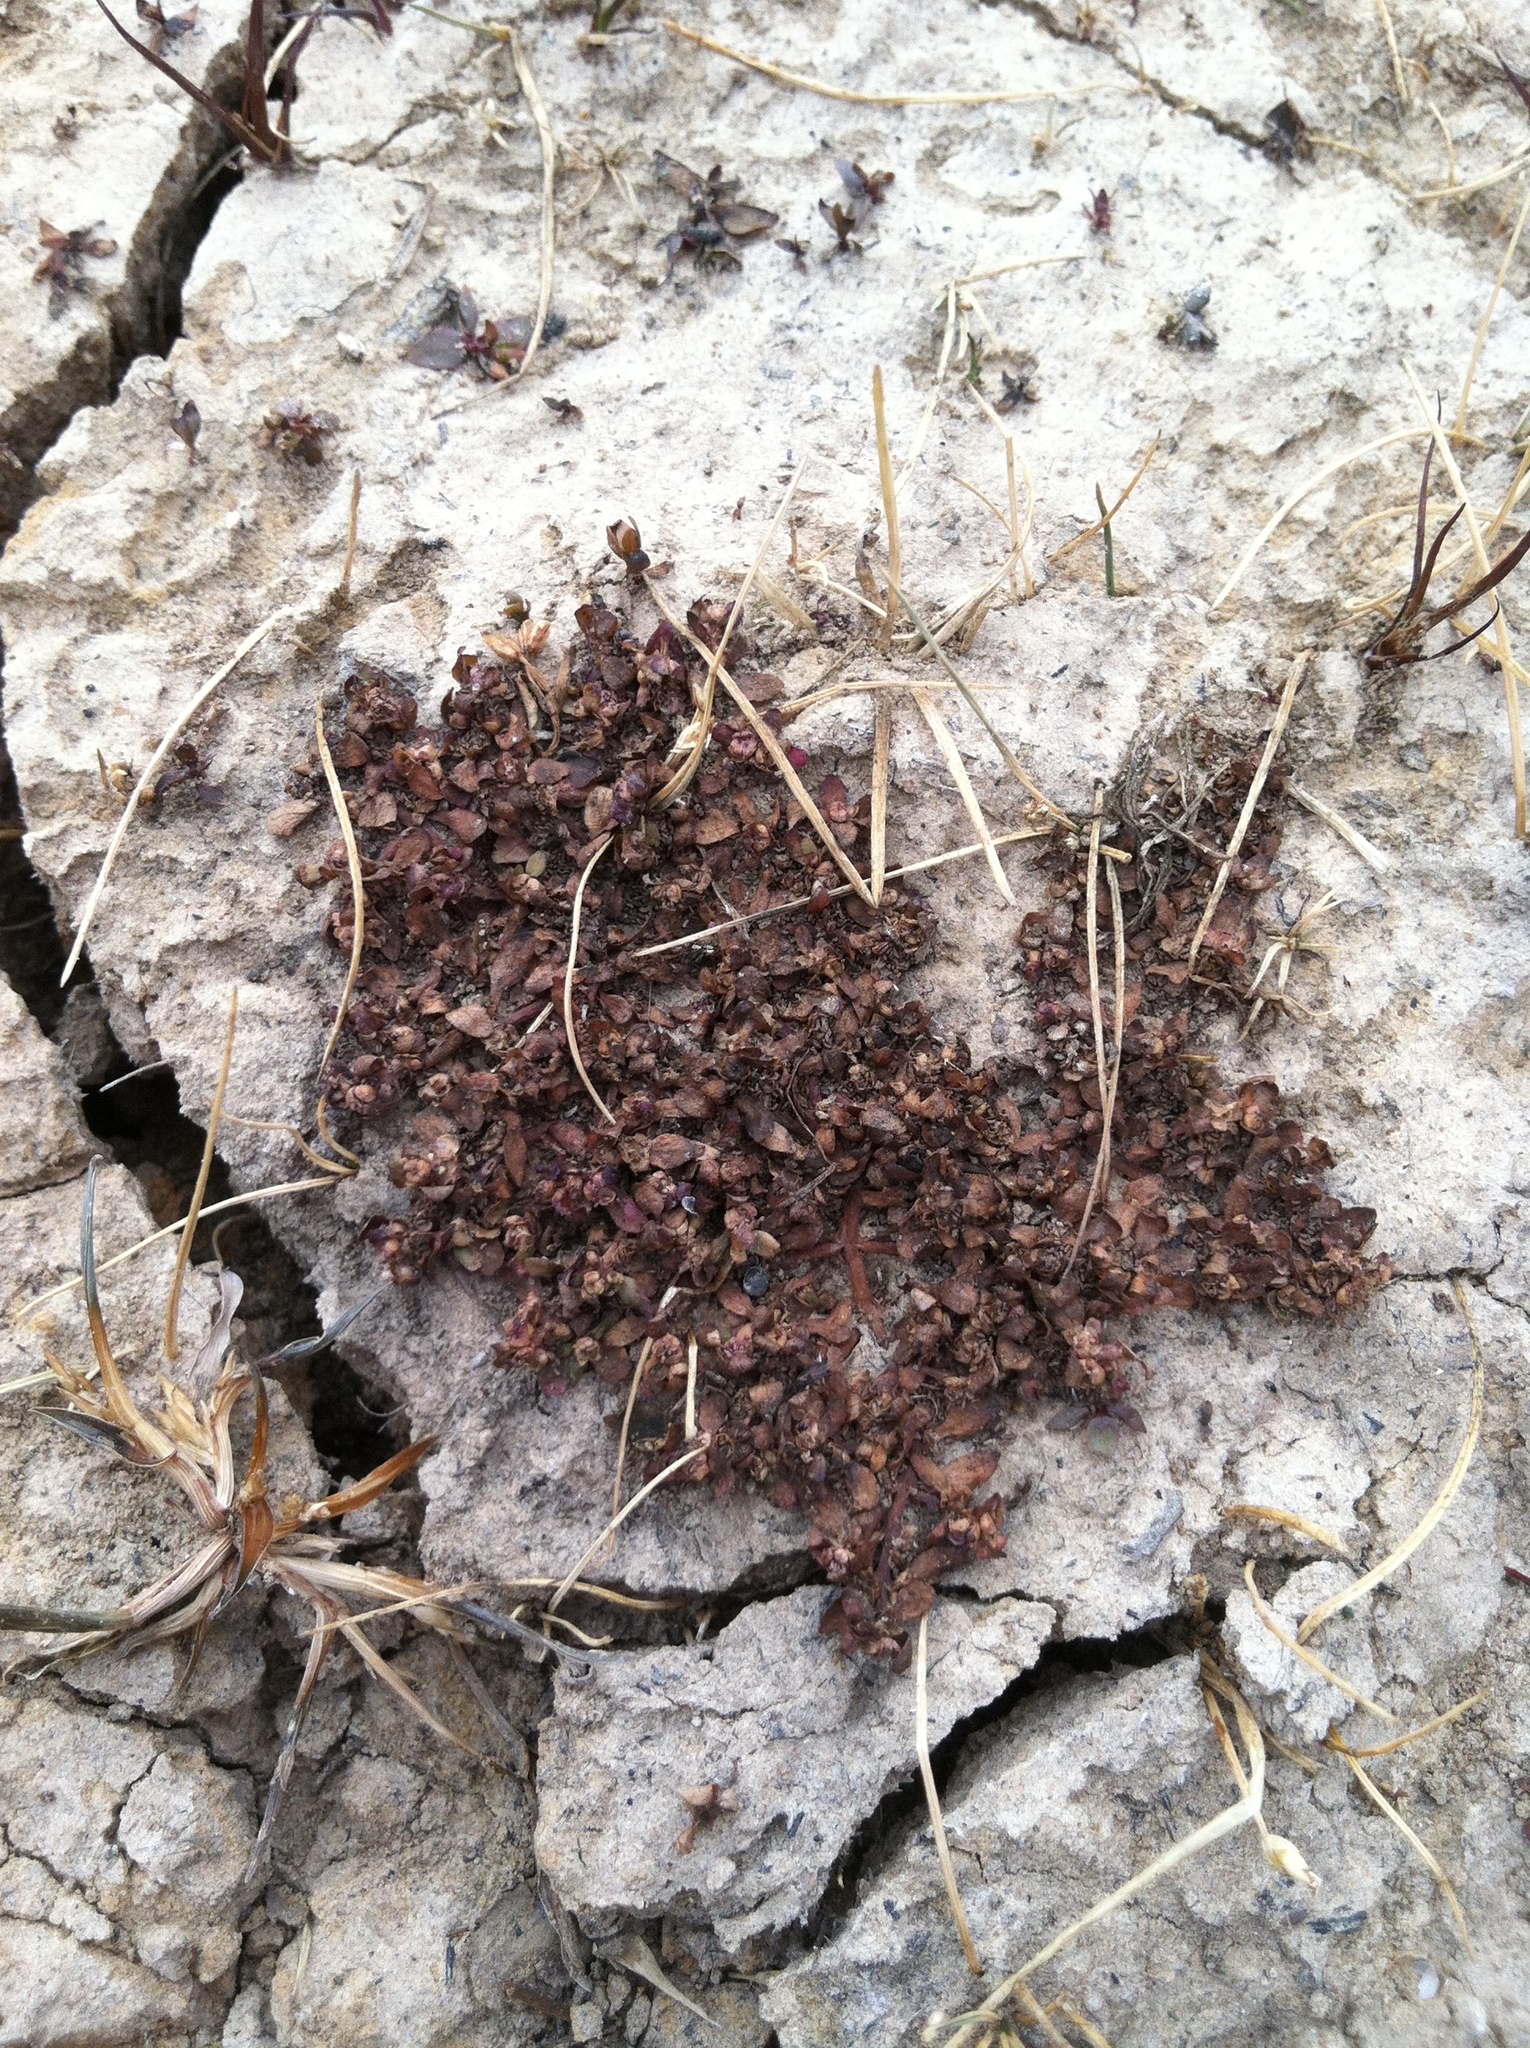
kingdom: Plantae
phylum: Tracheophyta
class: Magnoliopsida
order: Malpighiales
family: Elatinaceae
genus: Elatine
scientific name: Elatine brachysperma
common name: Short-fruited waterwort
